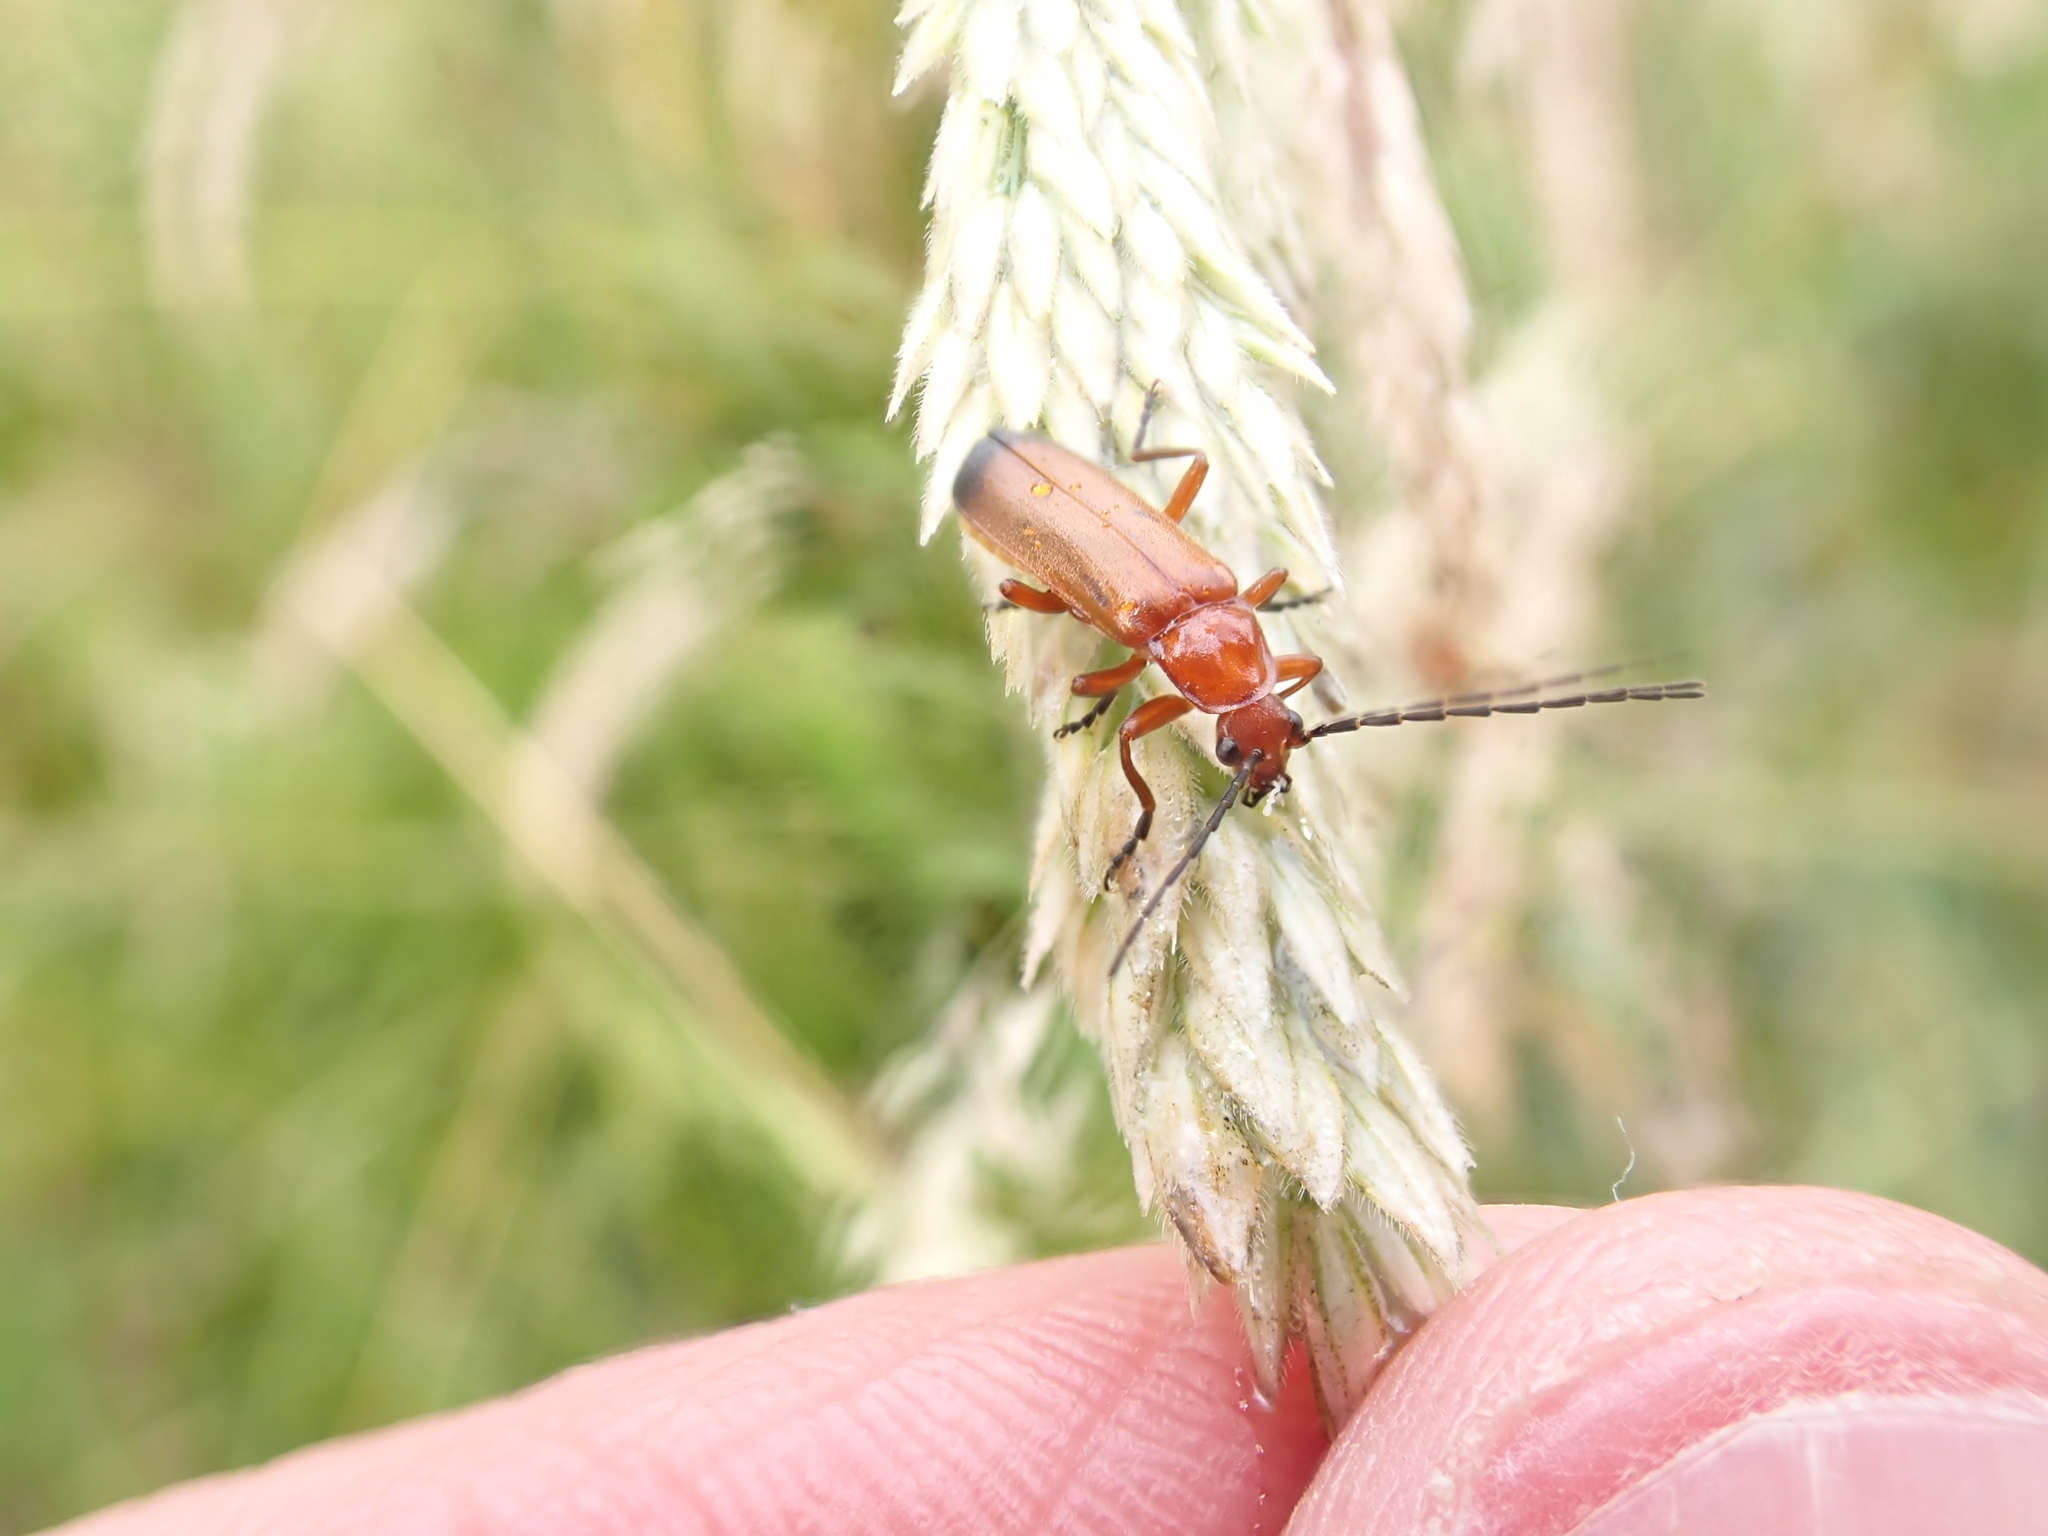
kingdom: Animalia
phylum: Arthropoda
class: Insecta
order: Coleoptera
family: Cantharidae
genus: Rhagonycha
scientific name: Rhagonycha fulva
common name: Common red soldier beetle
